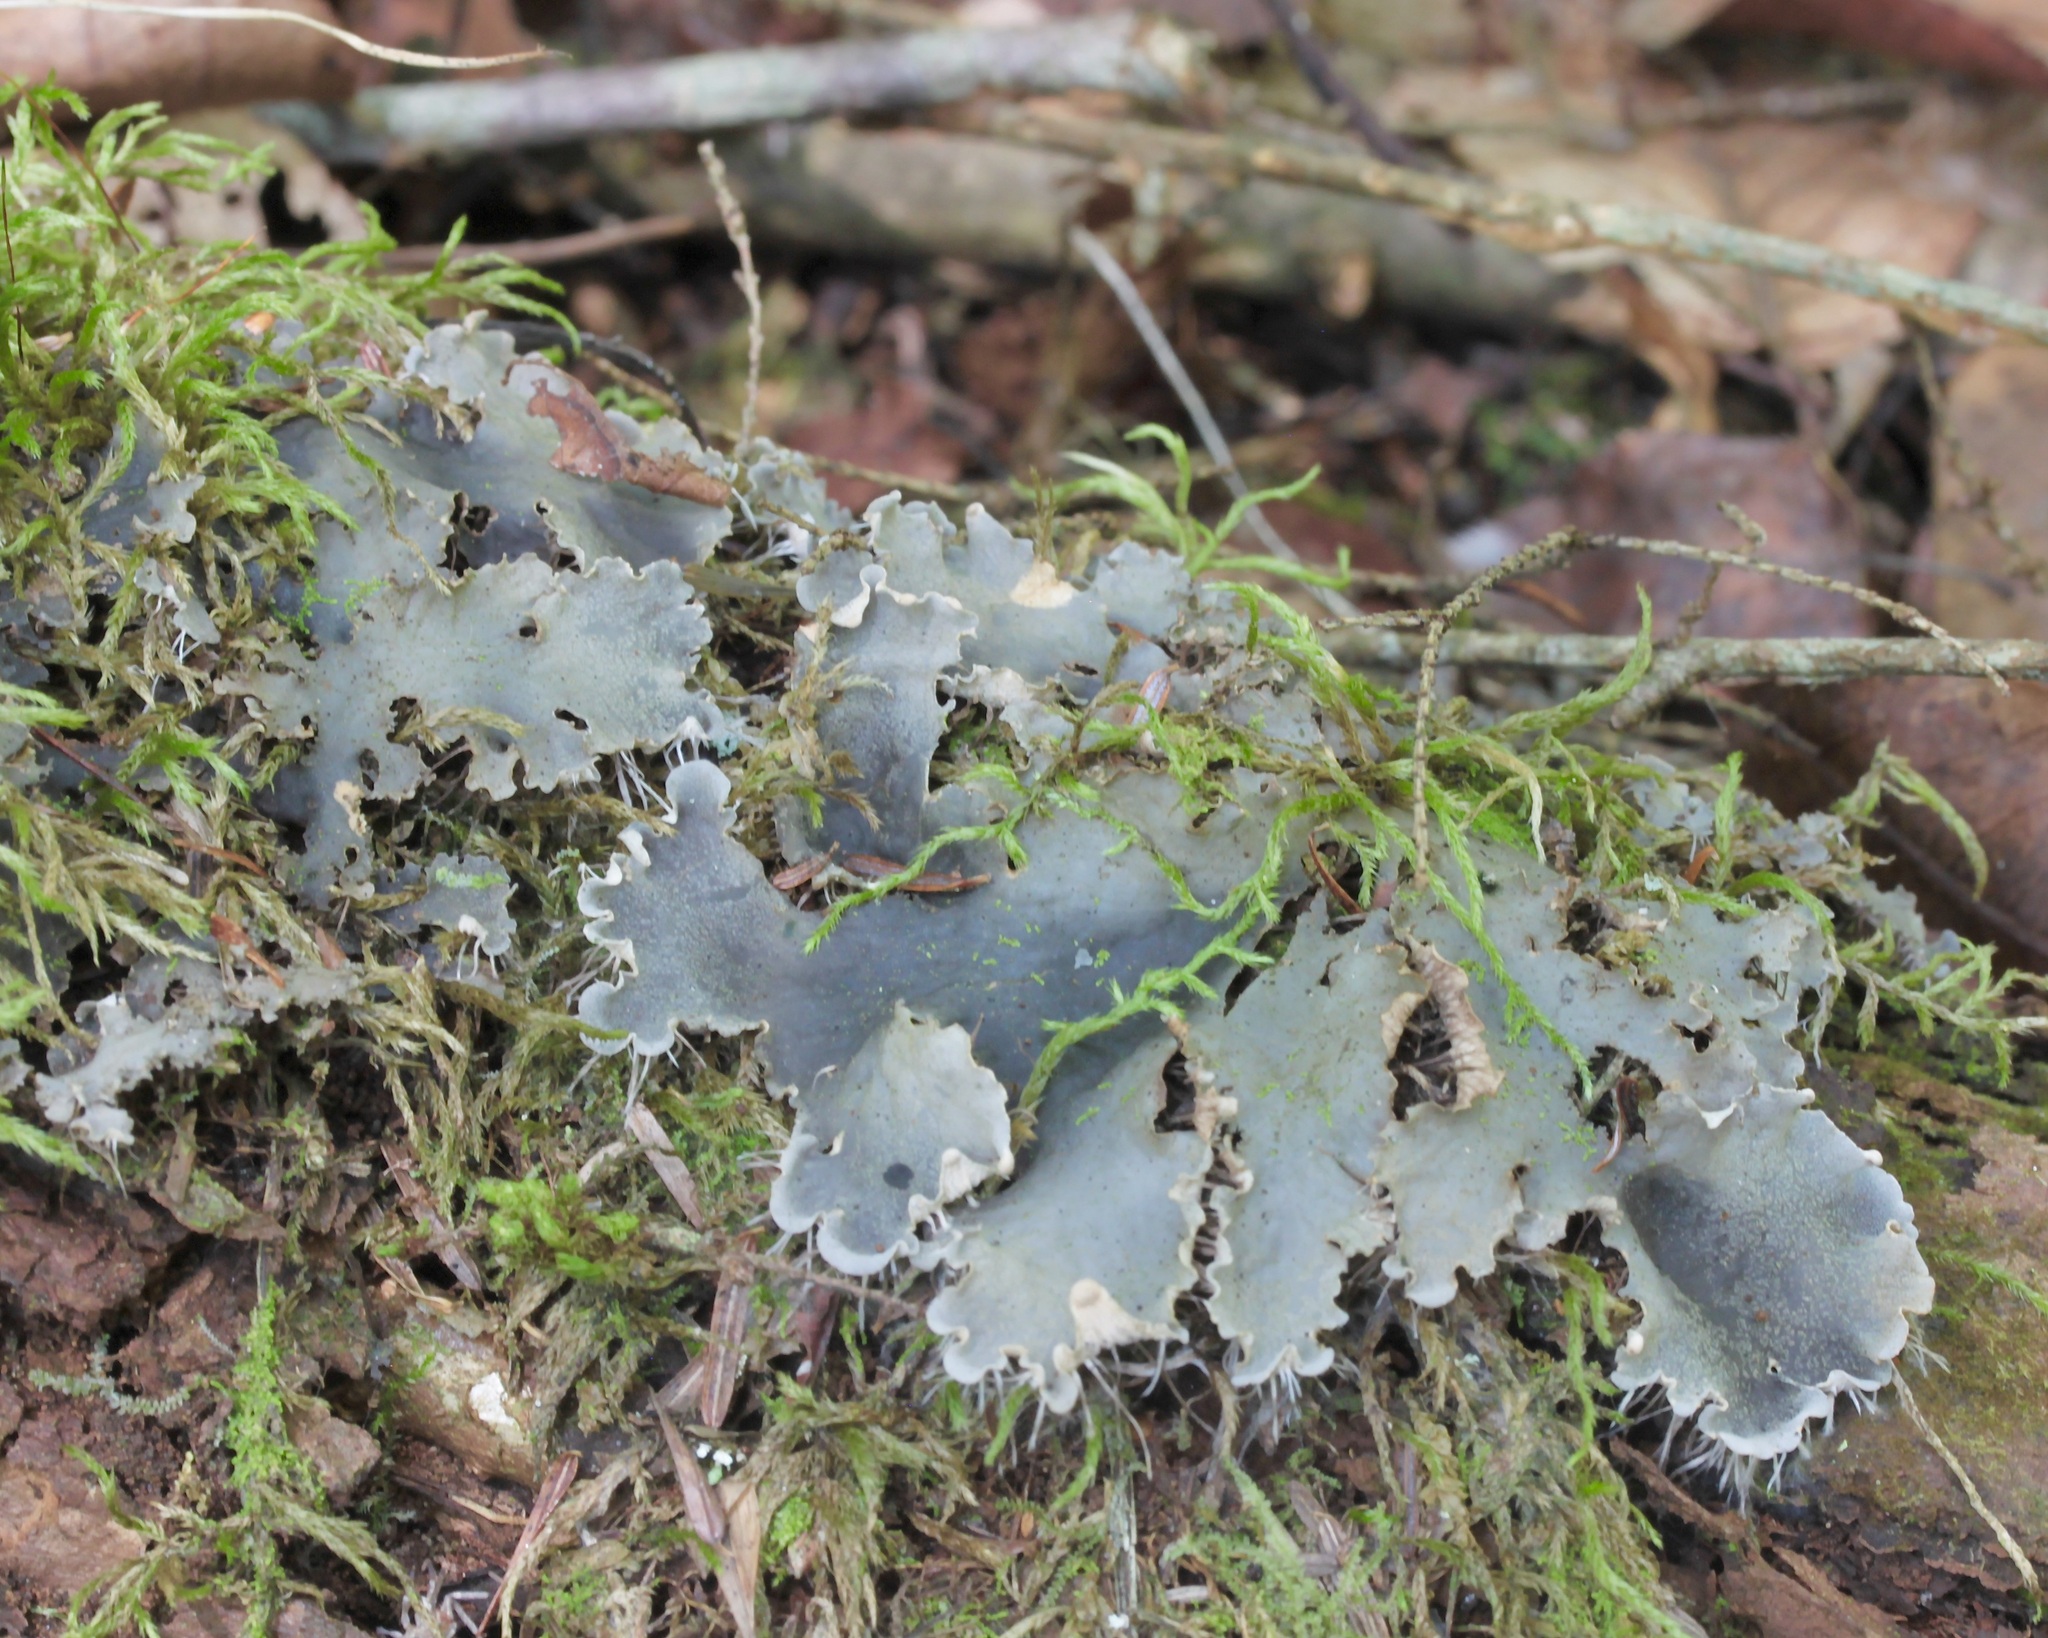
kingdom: Fungi
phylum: Ascomycota
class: Lecanoromycetes
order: Peltigerales
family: Peltigeraceae
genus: Peltigera
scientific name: Peltigera praetextata
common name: Scaly dog-lichen
